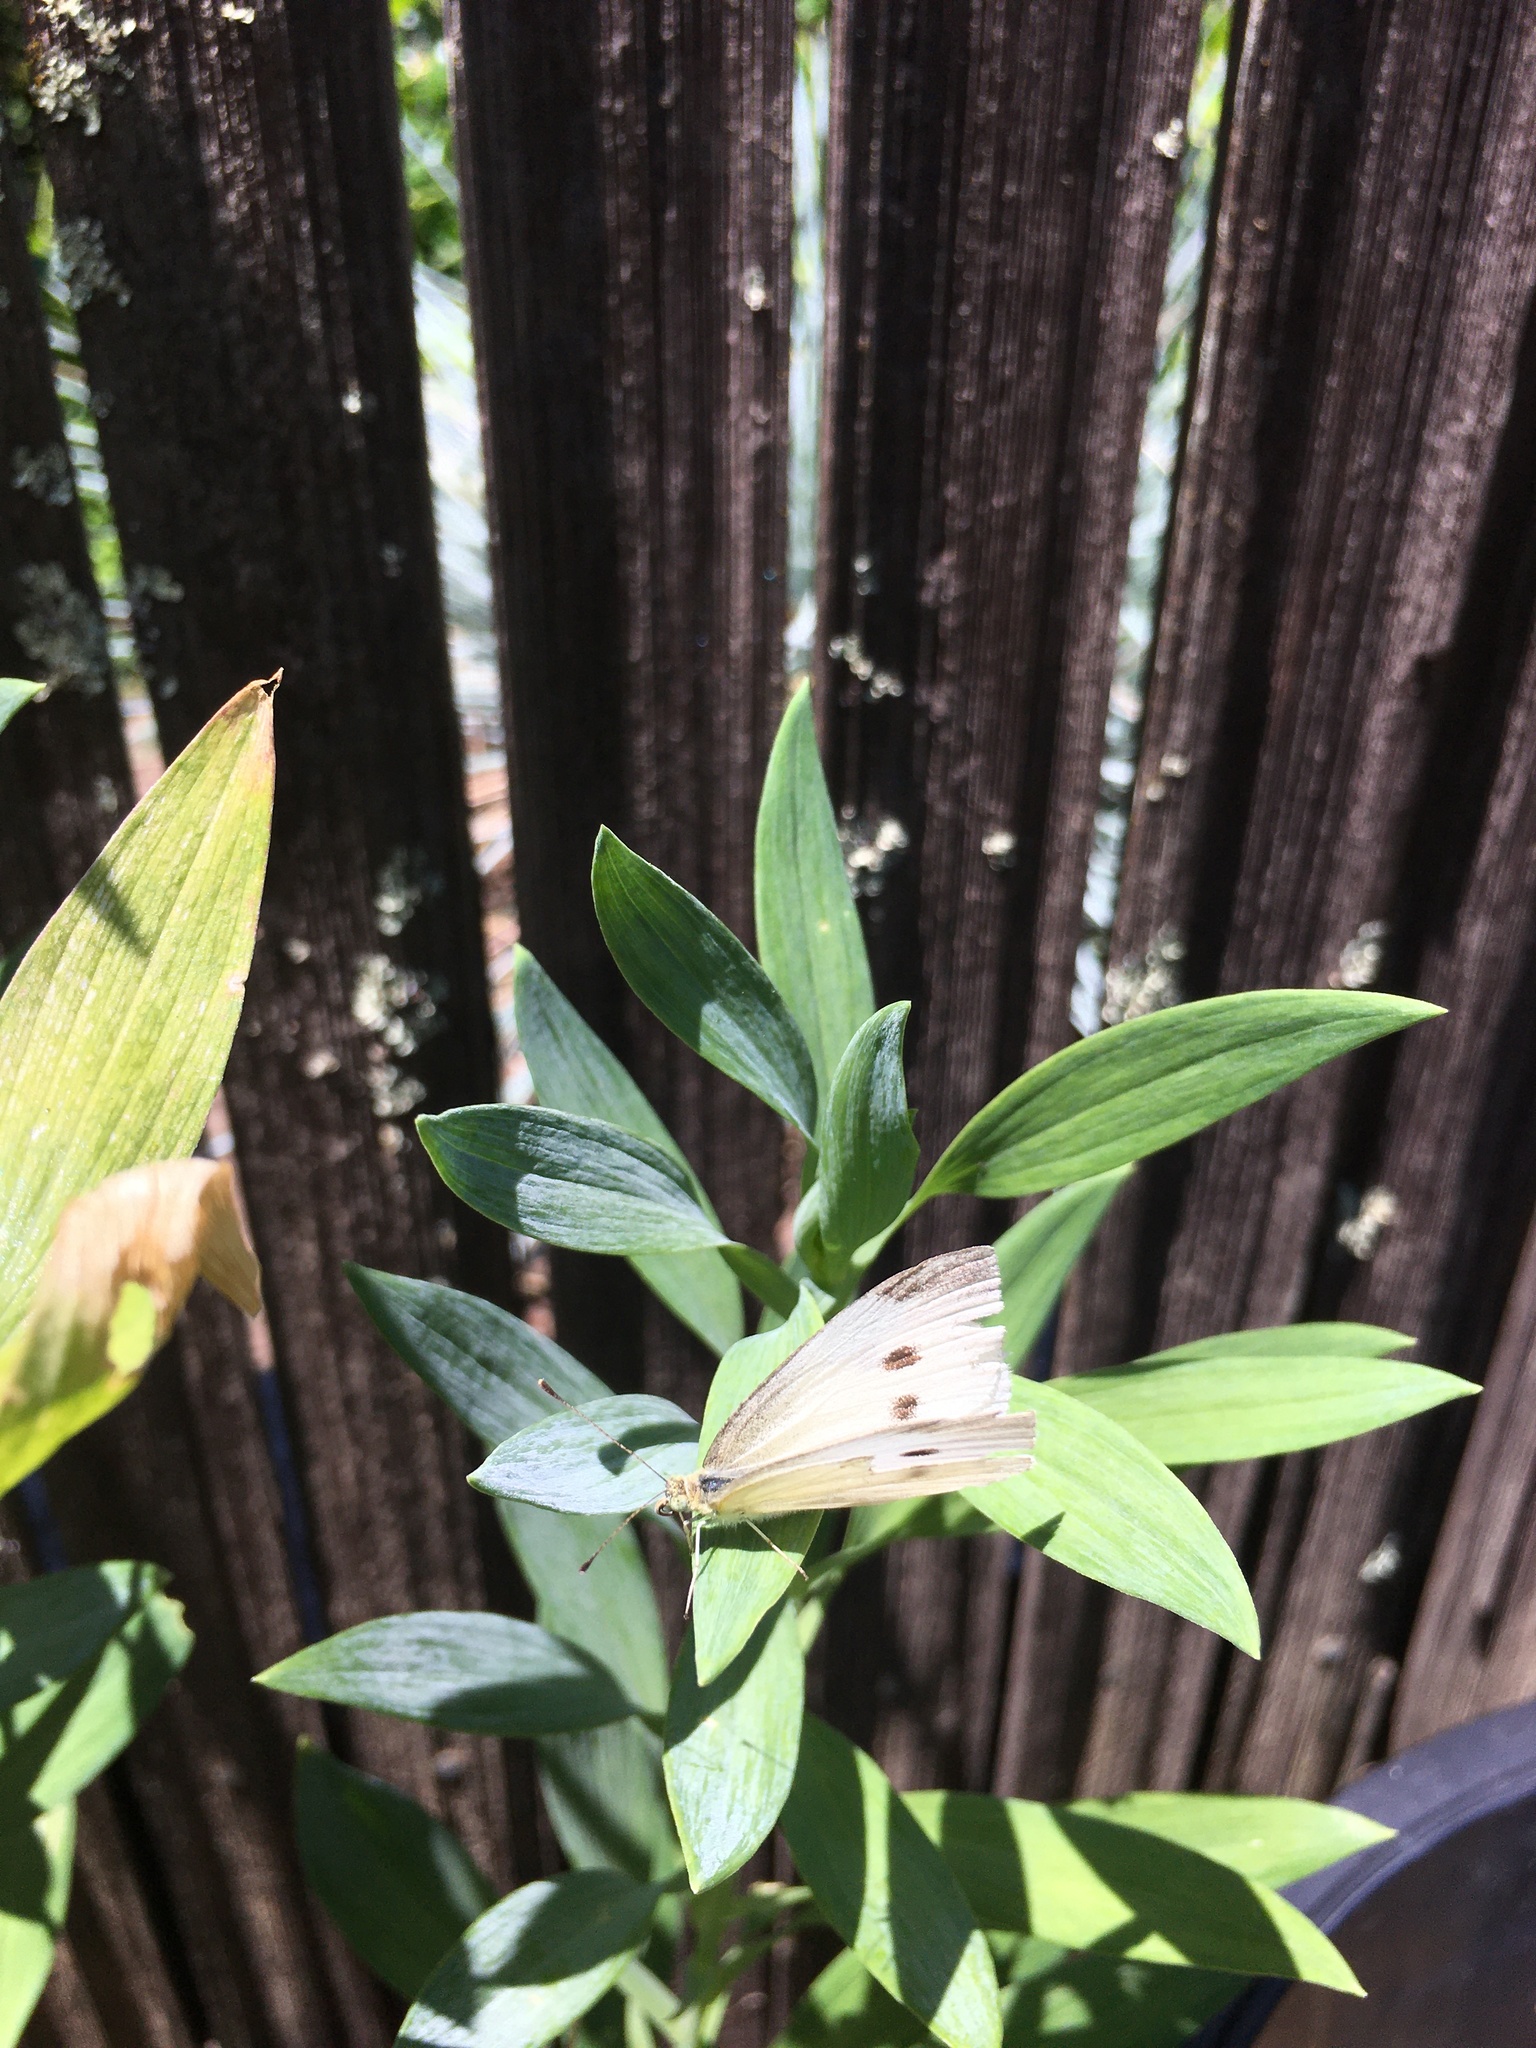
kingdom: Animalia
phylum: Arthropoda
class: Insecta
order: Lepidoptera
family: Pieridae
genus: Pieris
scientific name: Pieris rapae
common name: Small white
